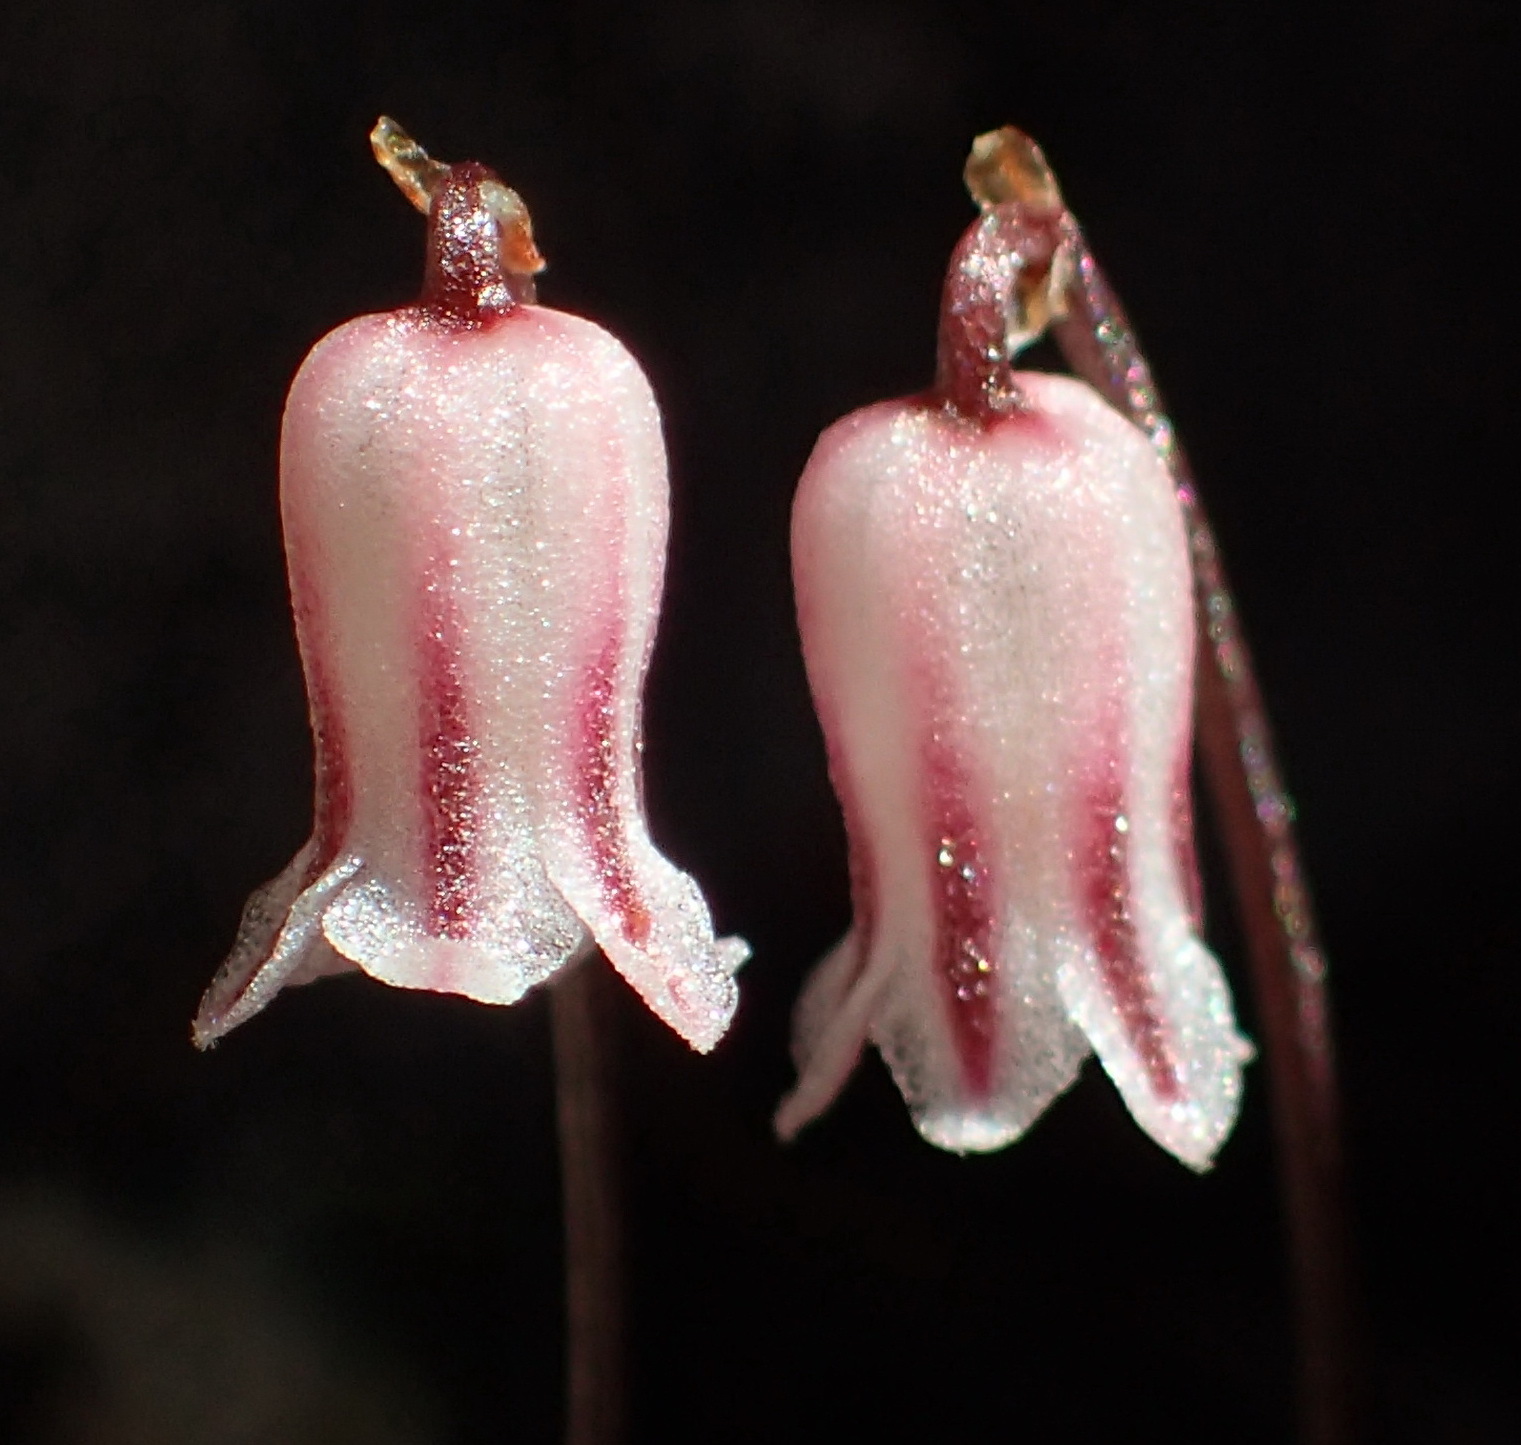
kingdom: Plantae
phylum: Tracheophyta
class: Liliopsida
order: Asparagales
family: Asparagaceae
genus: Drimia
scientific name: Drimia uniflora
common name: Fairy bell
